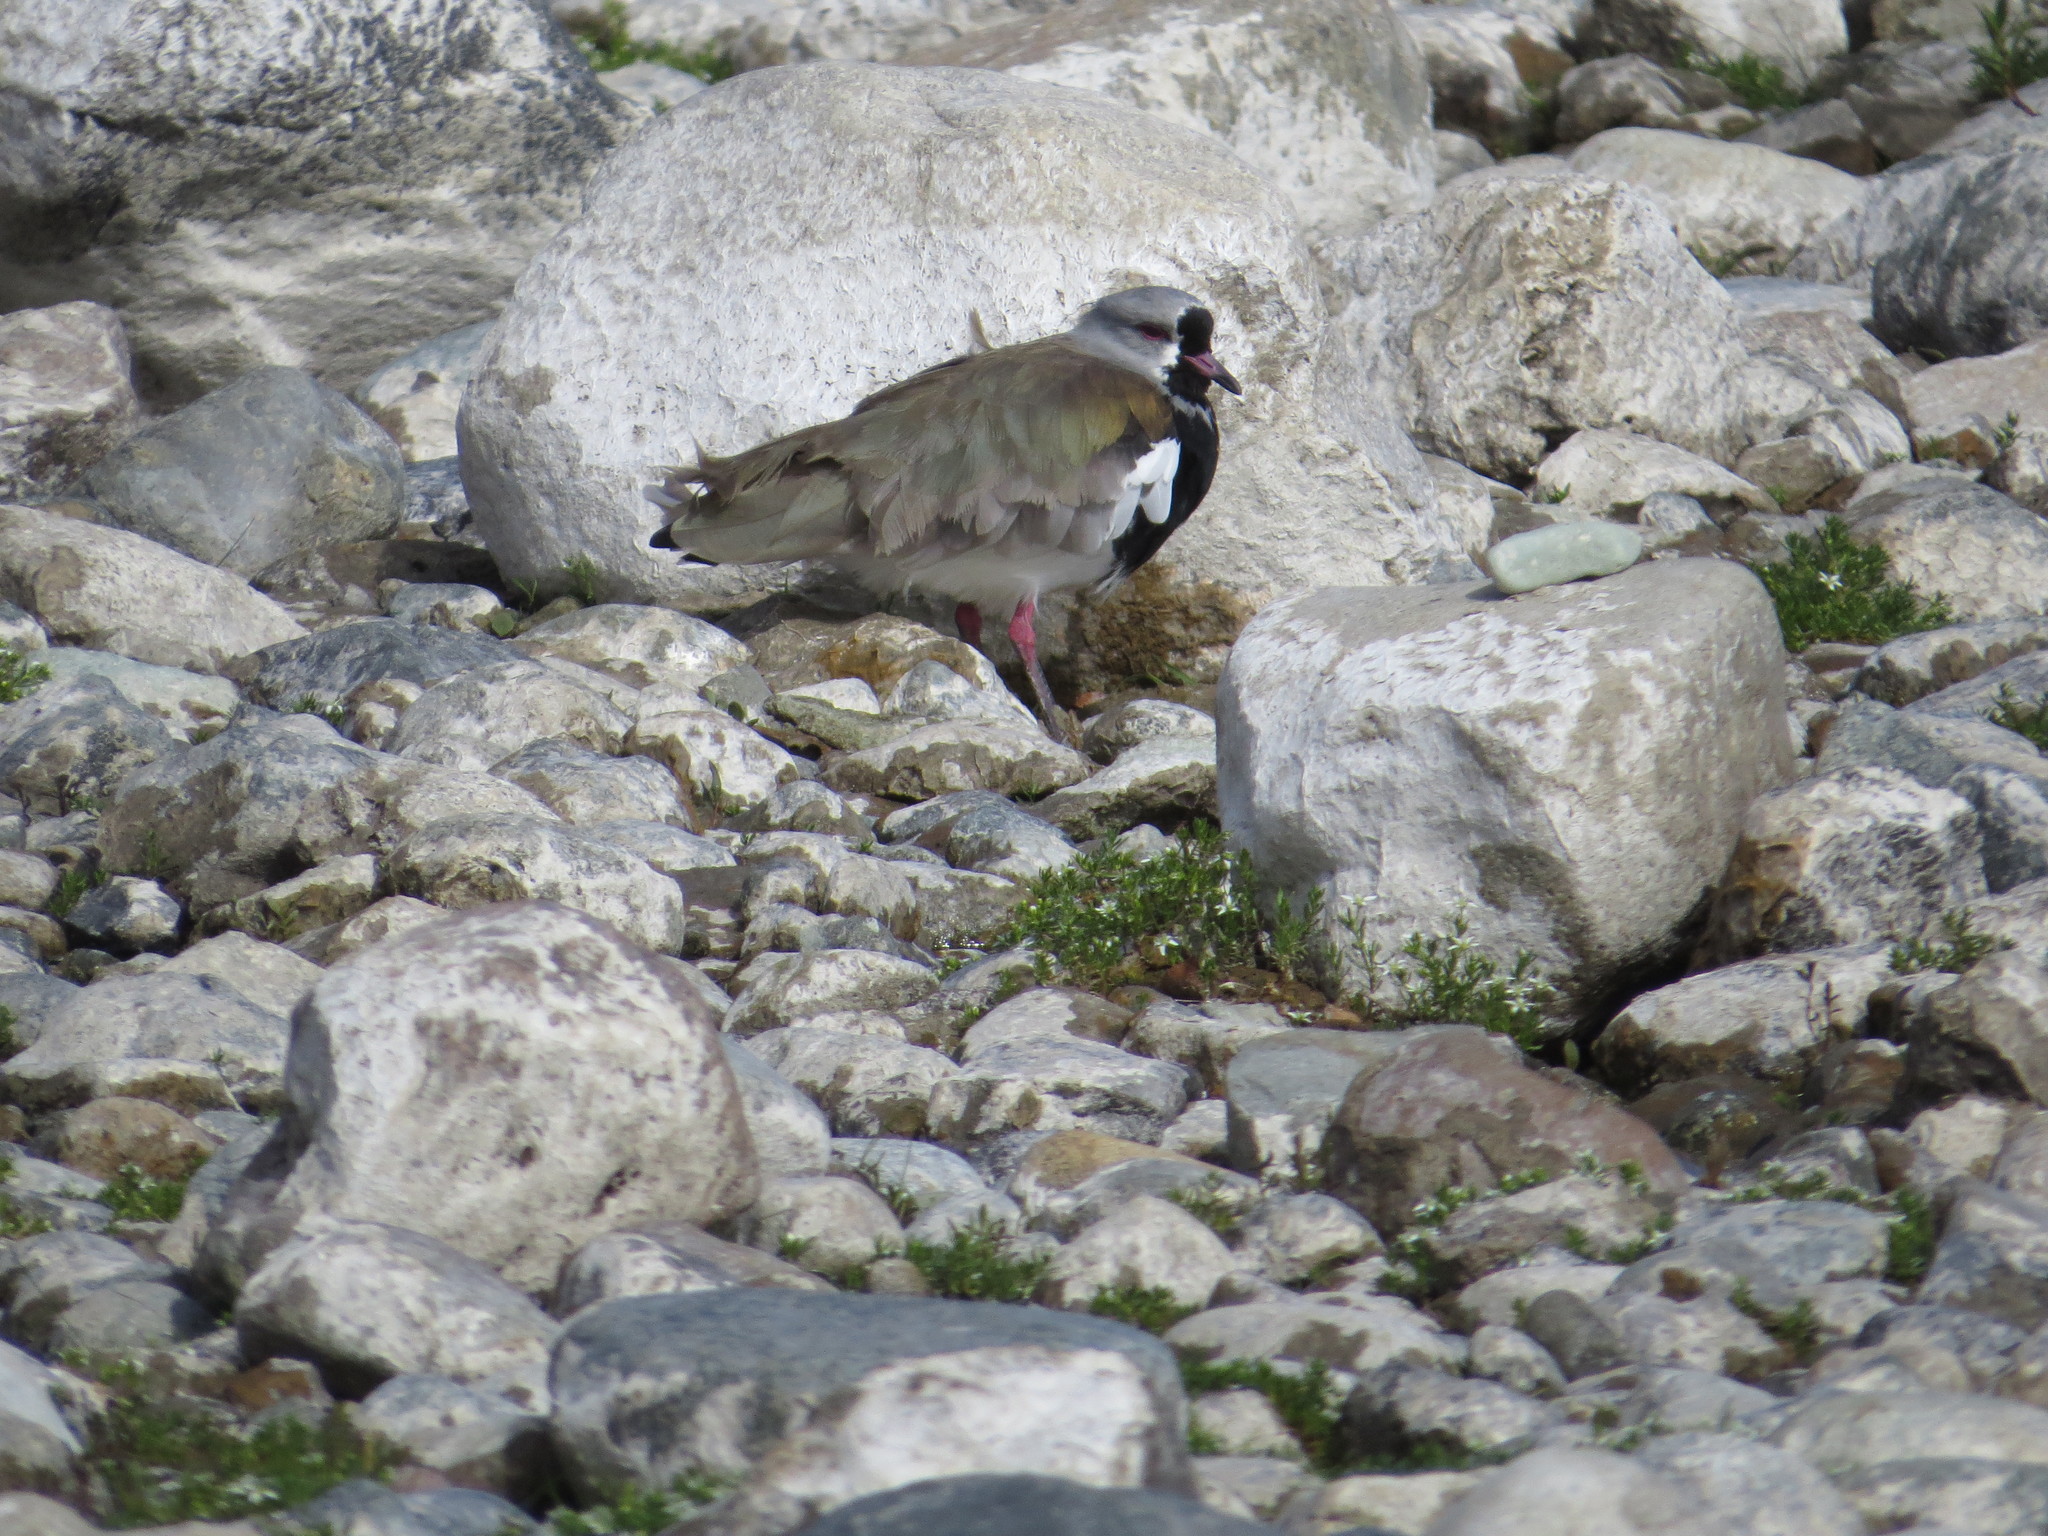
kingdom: Animalia
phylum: Chordata
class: Aves
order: Charadriiformes
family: Charadriidae
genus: Vanellus
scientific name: Vanellus chilensis
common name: Southern lapwing
